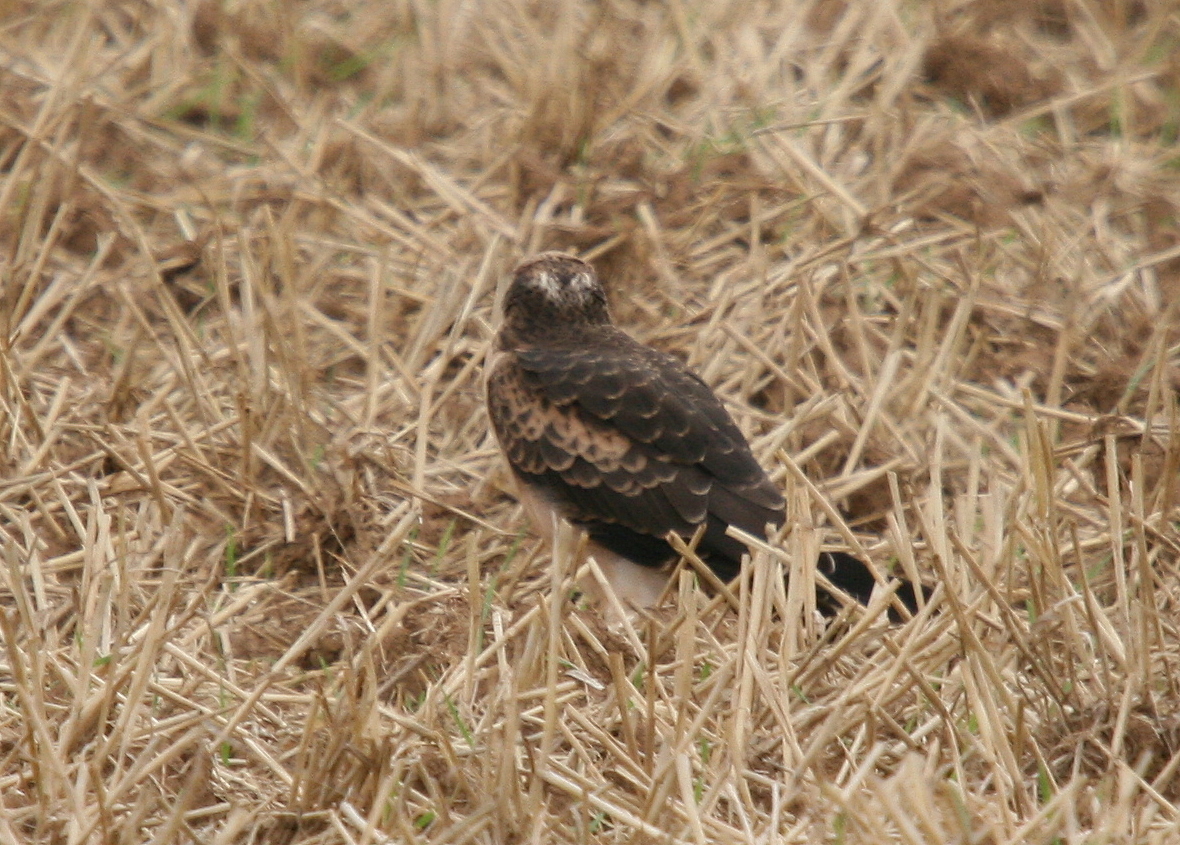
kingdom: Animalia
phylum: Chordata
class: Aves
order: Accipitriformes
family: Accipitridae
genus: Circus
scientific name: Circus pygargus
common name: Montagu's harrier
